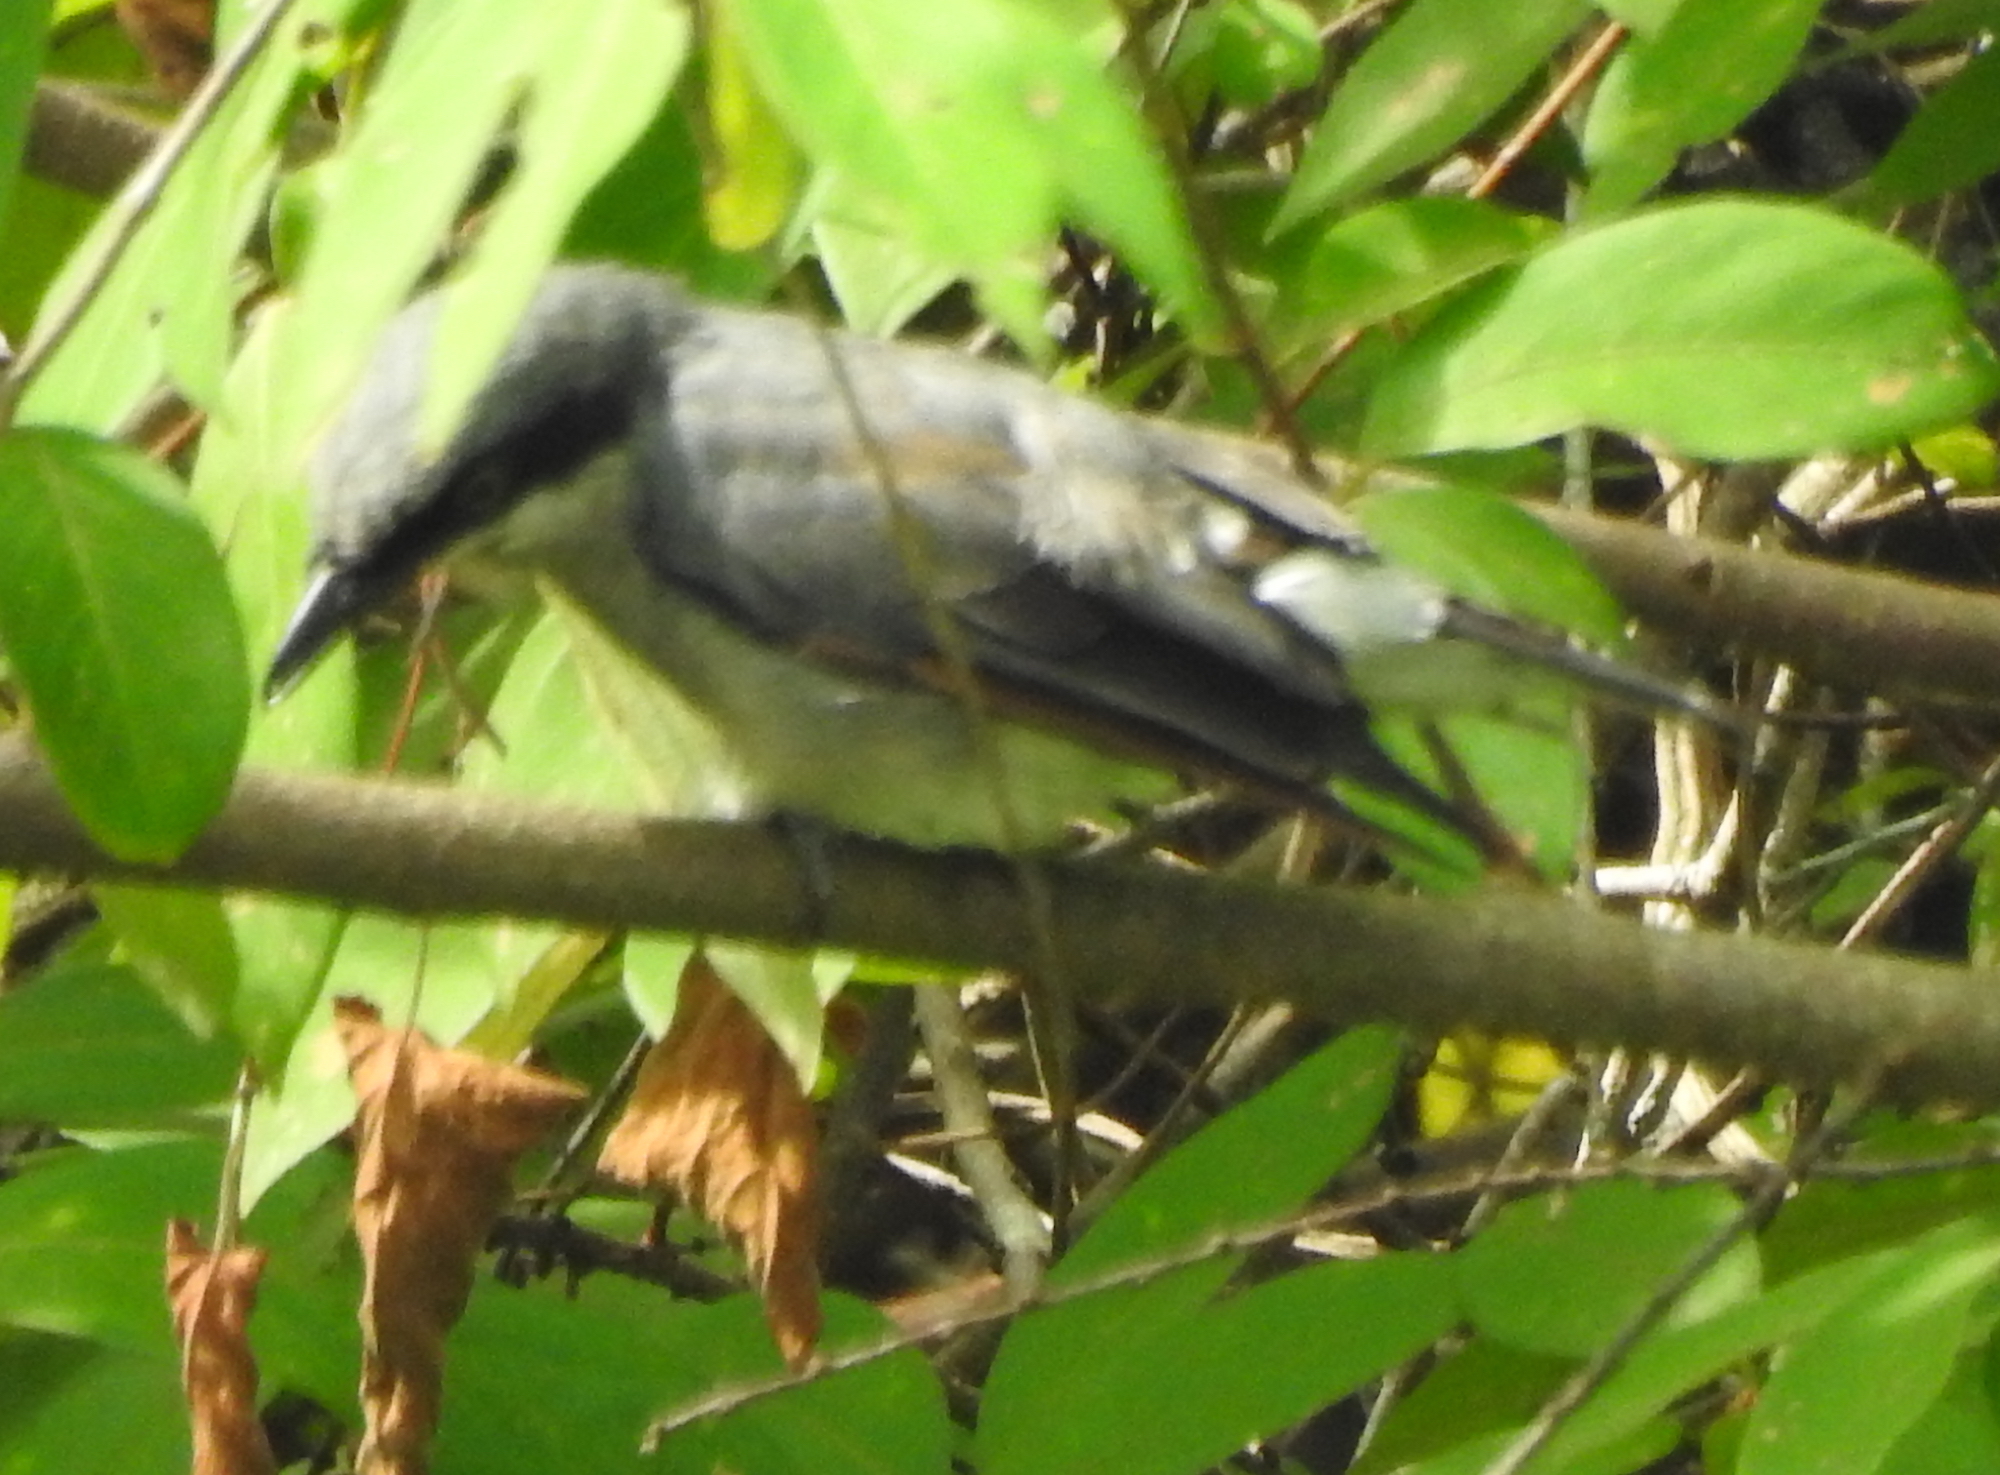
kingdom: Animalia
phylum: Chordata
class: Aves
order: Passeriformes
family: Tephrodornithidae
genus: Tephrodornis
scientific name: Tephrodornis virgatus
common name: Large woodshrike
